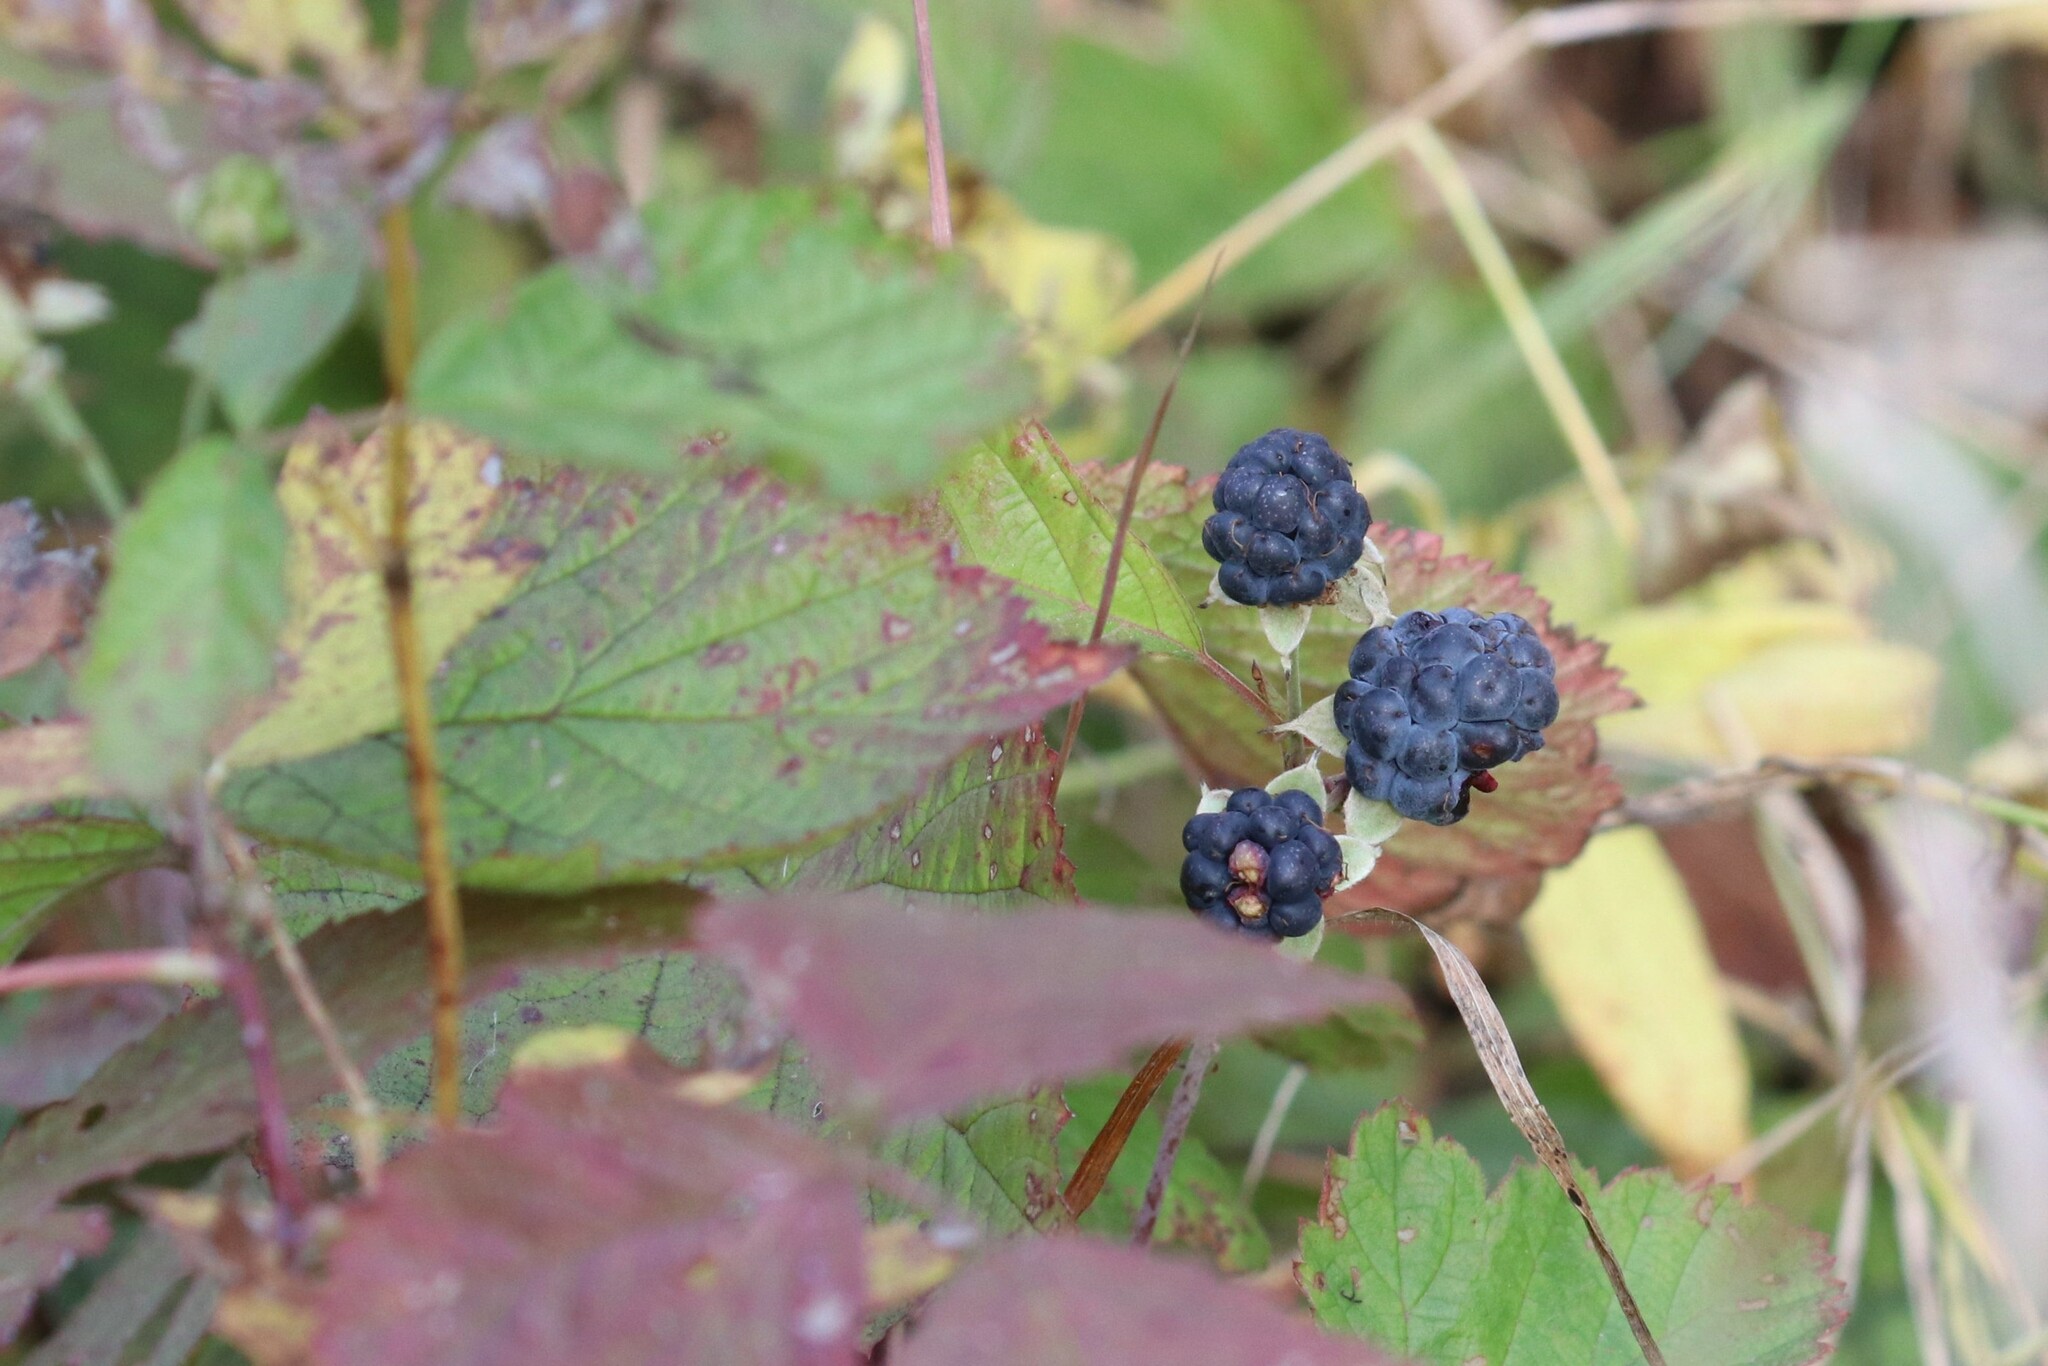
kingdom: Plantae
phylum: Tracheophyta
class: Magnoliopsida
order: Rosales
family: Rosaceae
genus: Rubus
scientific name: Rubus caesius
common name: Dewberry
